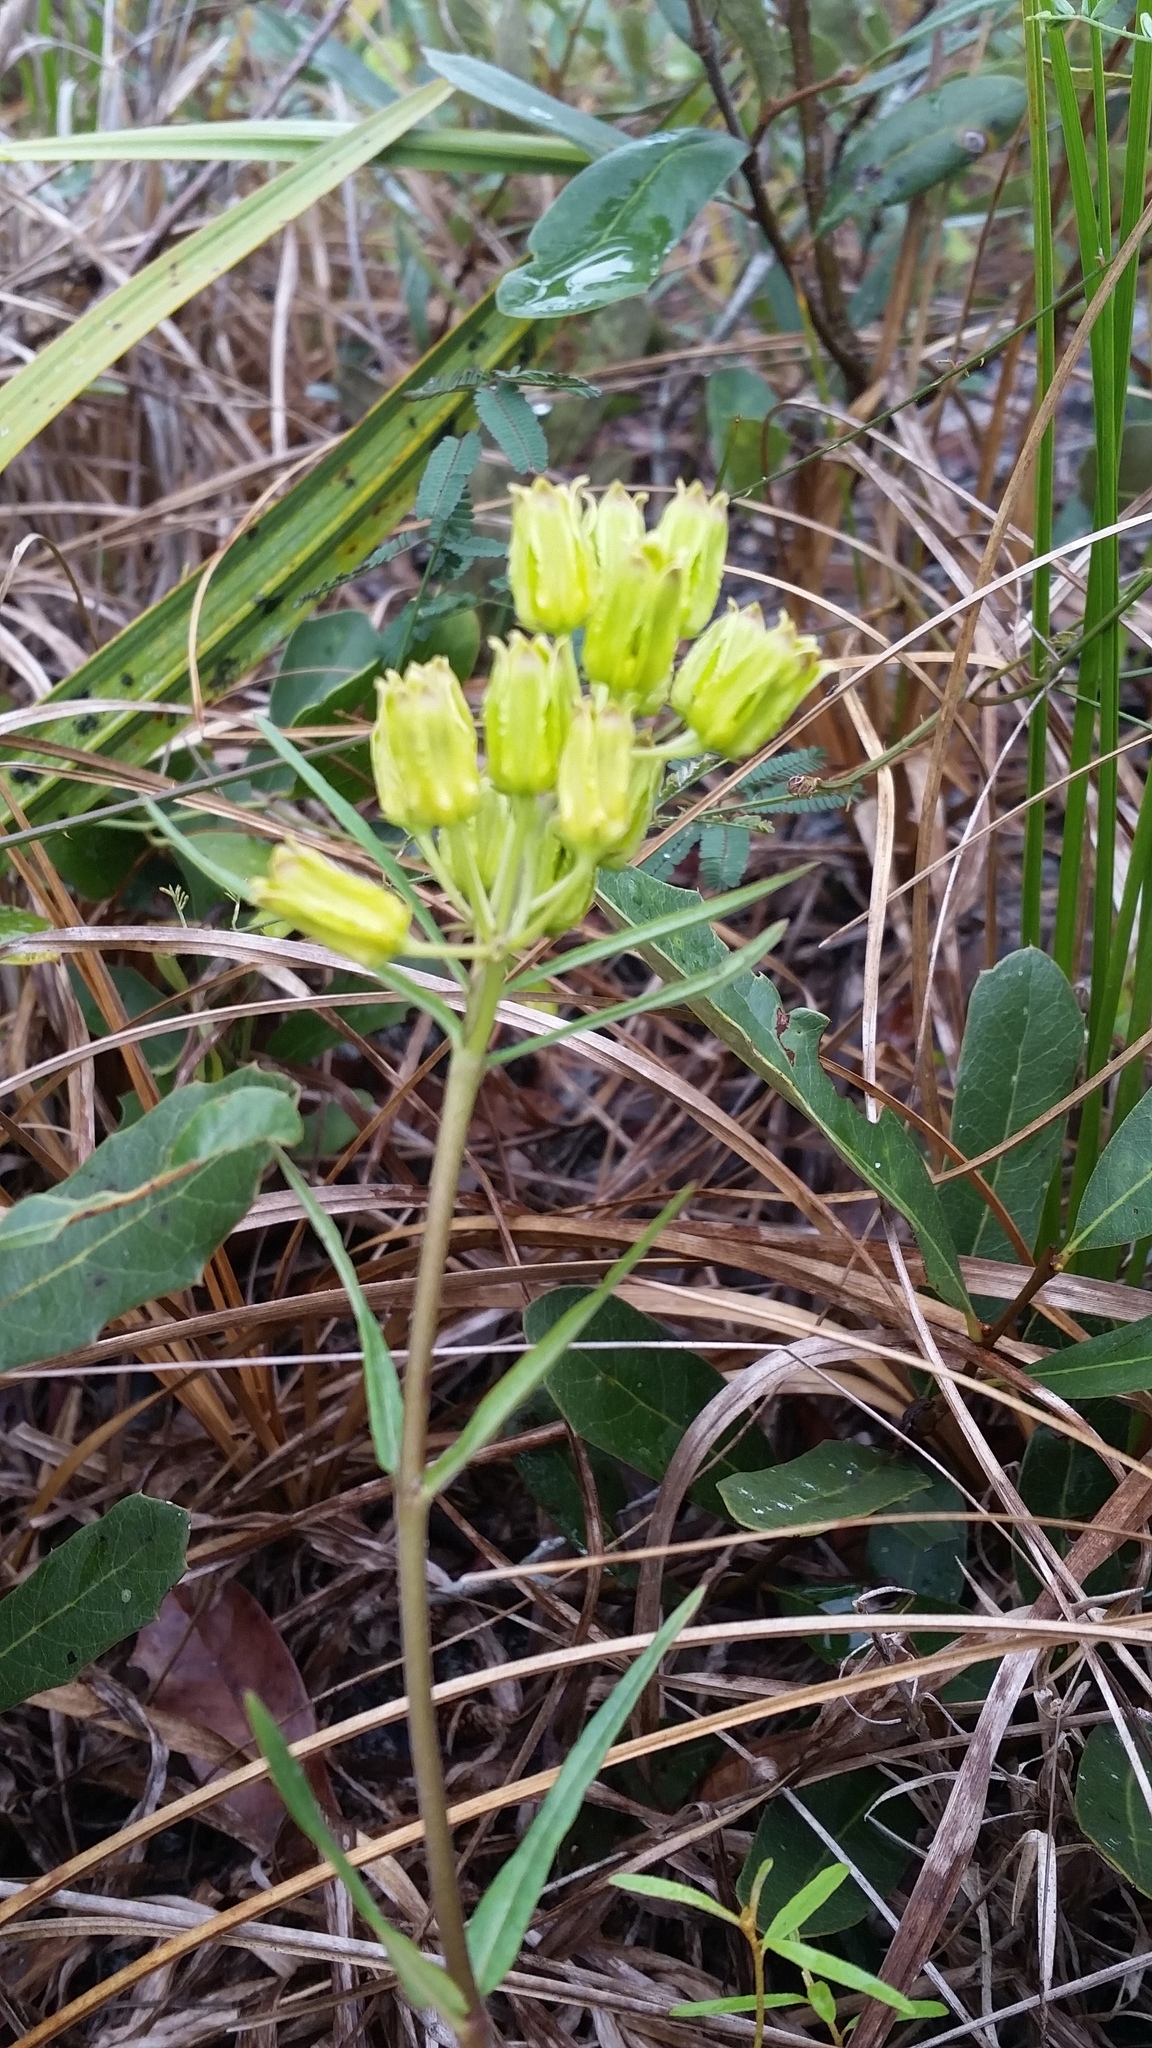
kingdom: Plantae
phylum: Tracheophyta
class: Magnoliopsida
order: Gentianales
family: Apocynaceae
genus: Asclepias
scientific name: Asclepias pedicellata
